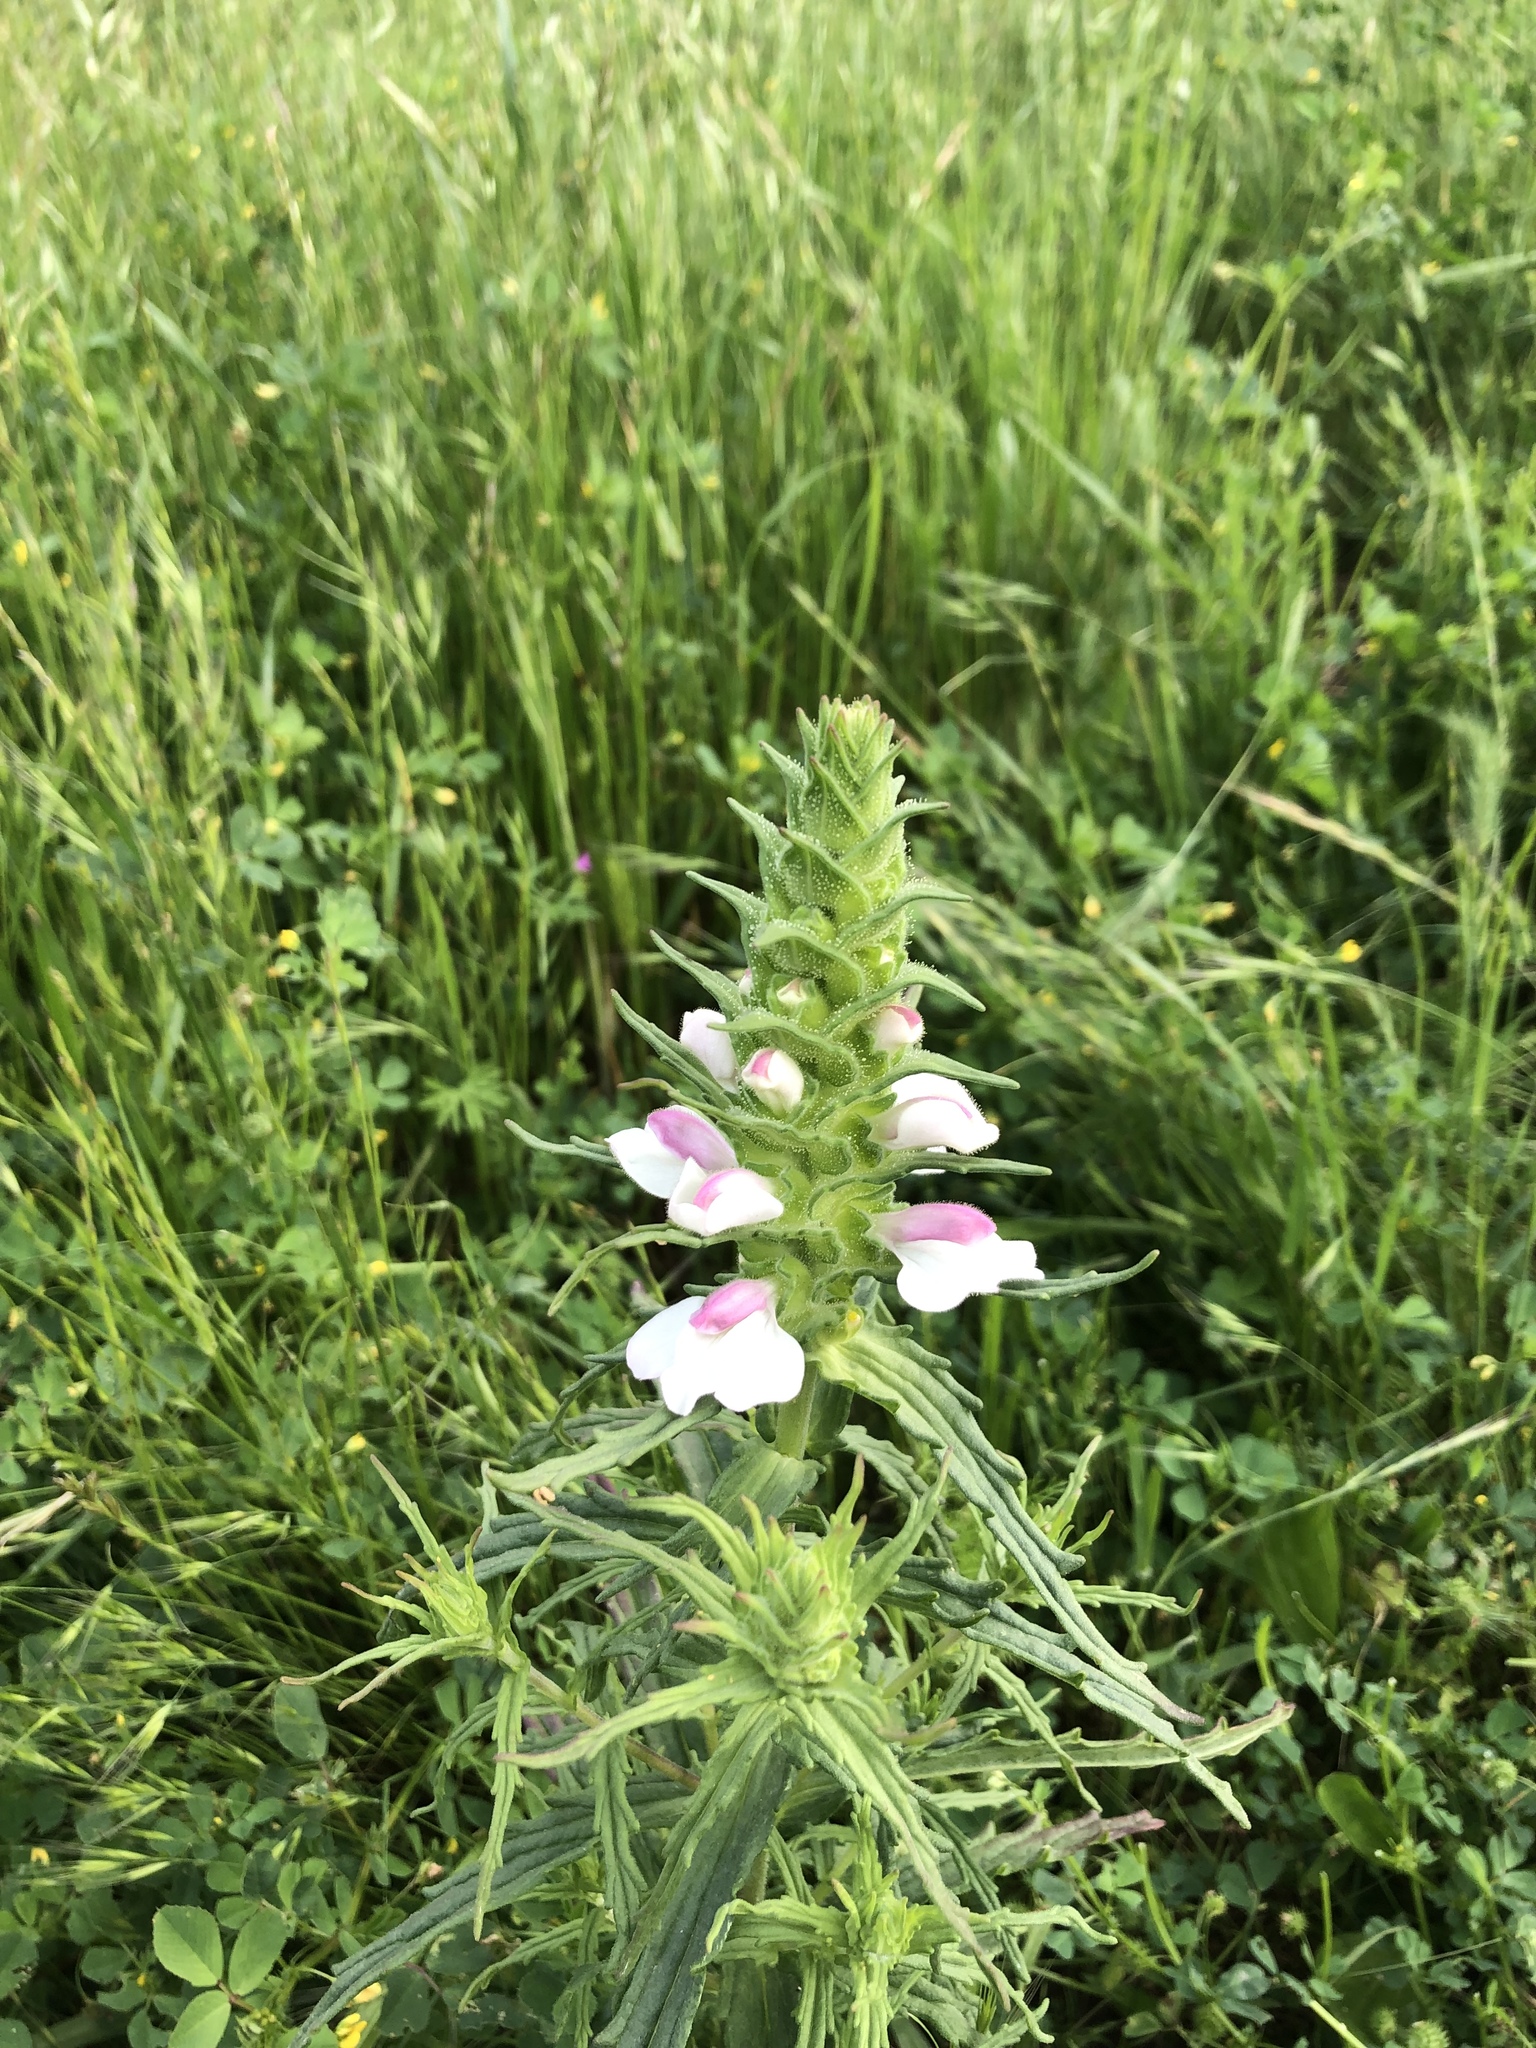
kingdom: Plantae
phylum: Tracheophyta
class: Magnoliopsida
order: Lamiales
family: Orobanchaceae
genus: Bellardia
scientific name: Bellardia trixago
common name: Mediterranean lineseed
